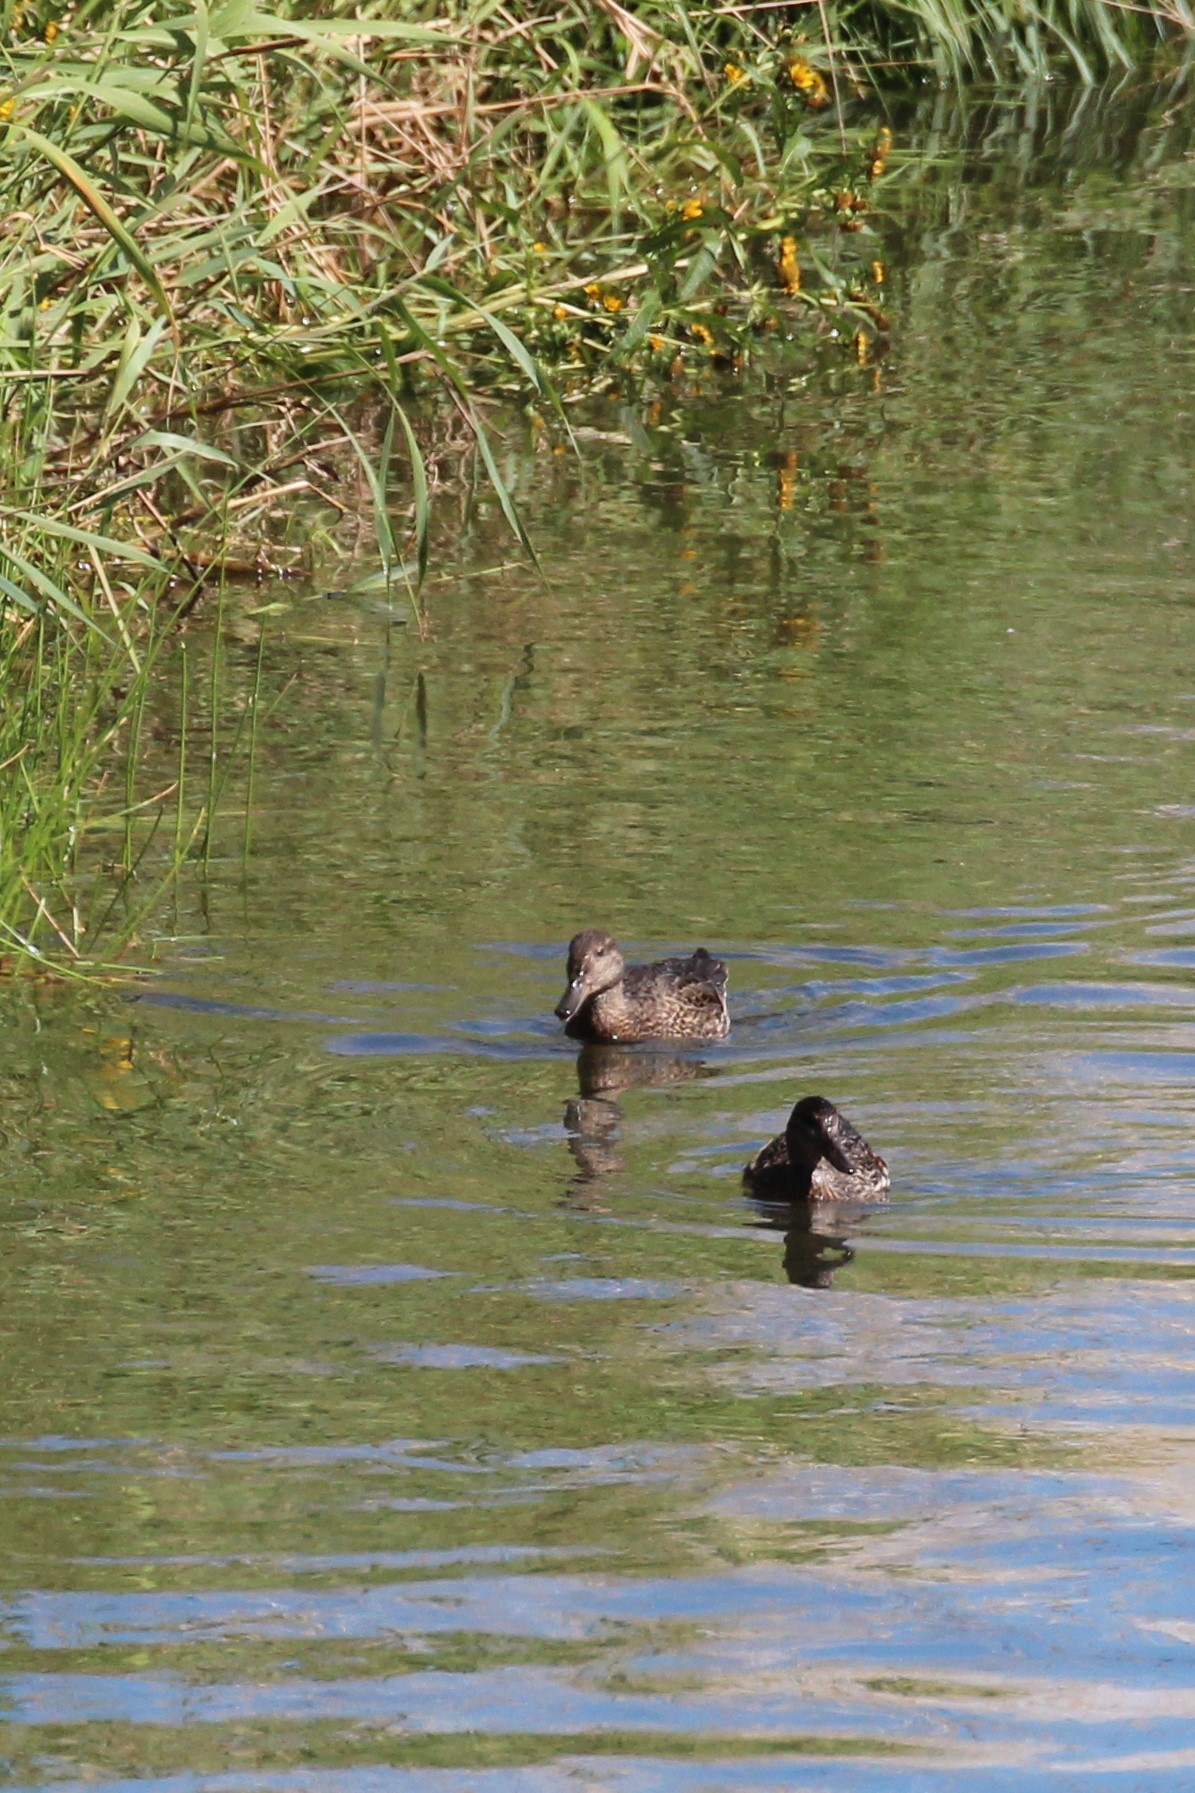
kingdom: Animalia
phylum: Chordata
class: Aves
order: Anseriformes
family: Anatidae
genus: Anas
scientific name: Anas crecca
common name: Eurasian teal
